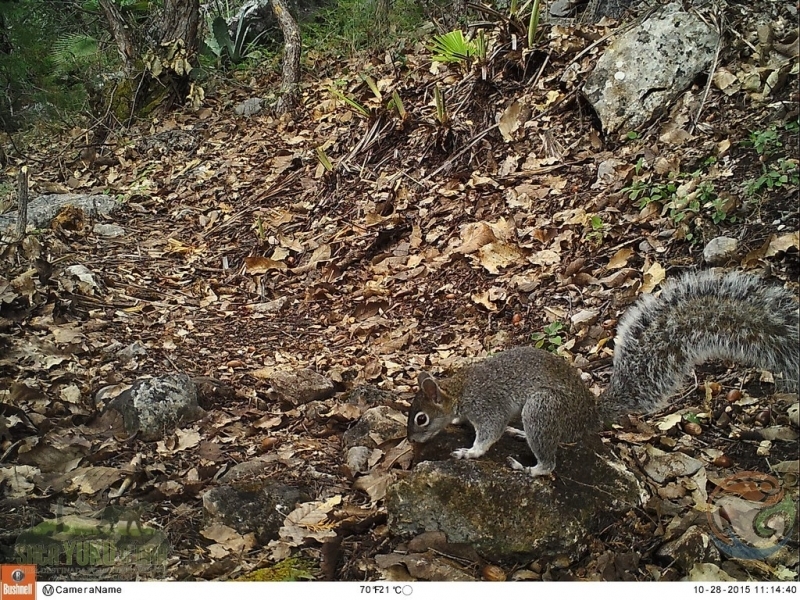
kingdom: Animalia
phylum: Chordata
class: Mammalia
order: Rodentia
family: Sciuridae
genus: Sciurus
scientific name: Sciurus aureogaster
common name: Red-bellied squirrel
